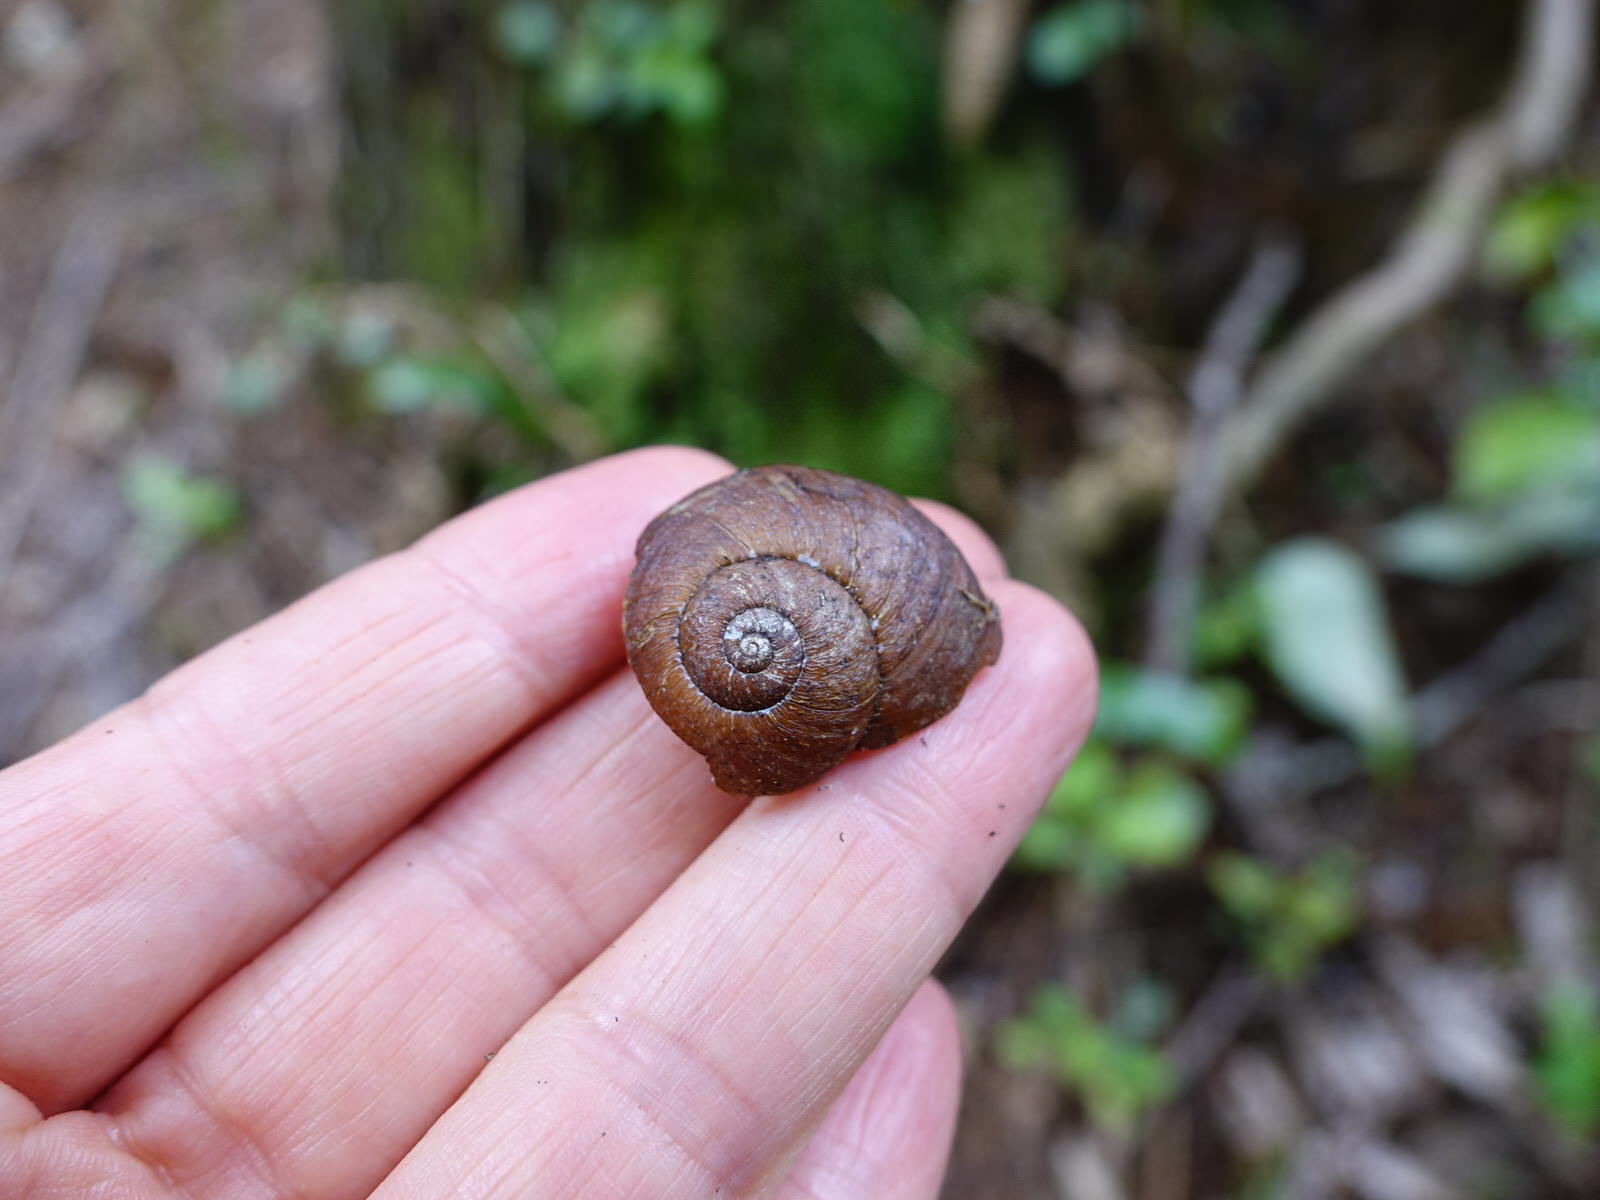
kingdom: Animalia
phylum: Mollusca
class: Gastropoda
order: Stylommatophora
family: Rhytididae
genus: Rhytida
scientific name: Rhytida greenwoodi
